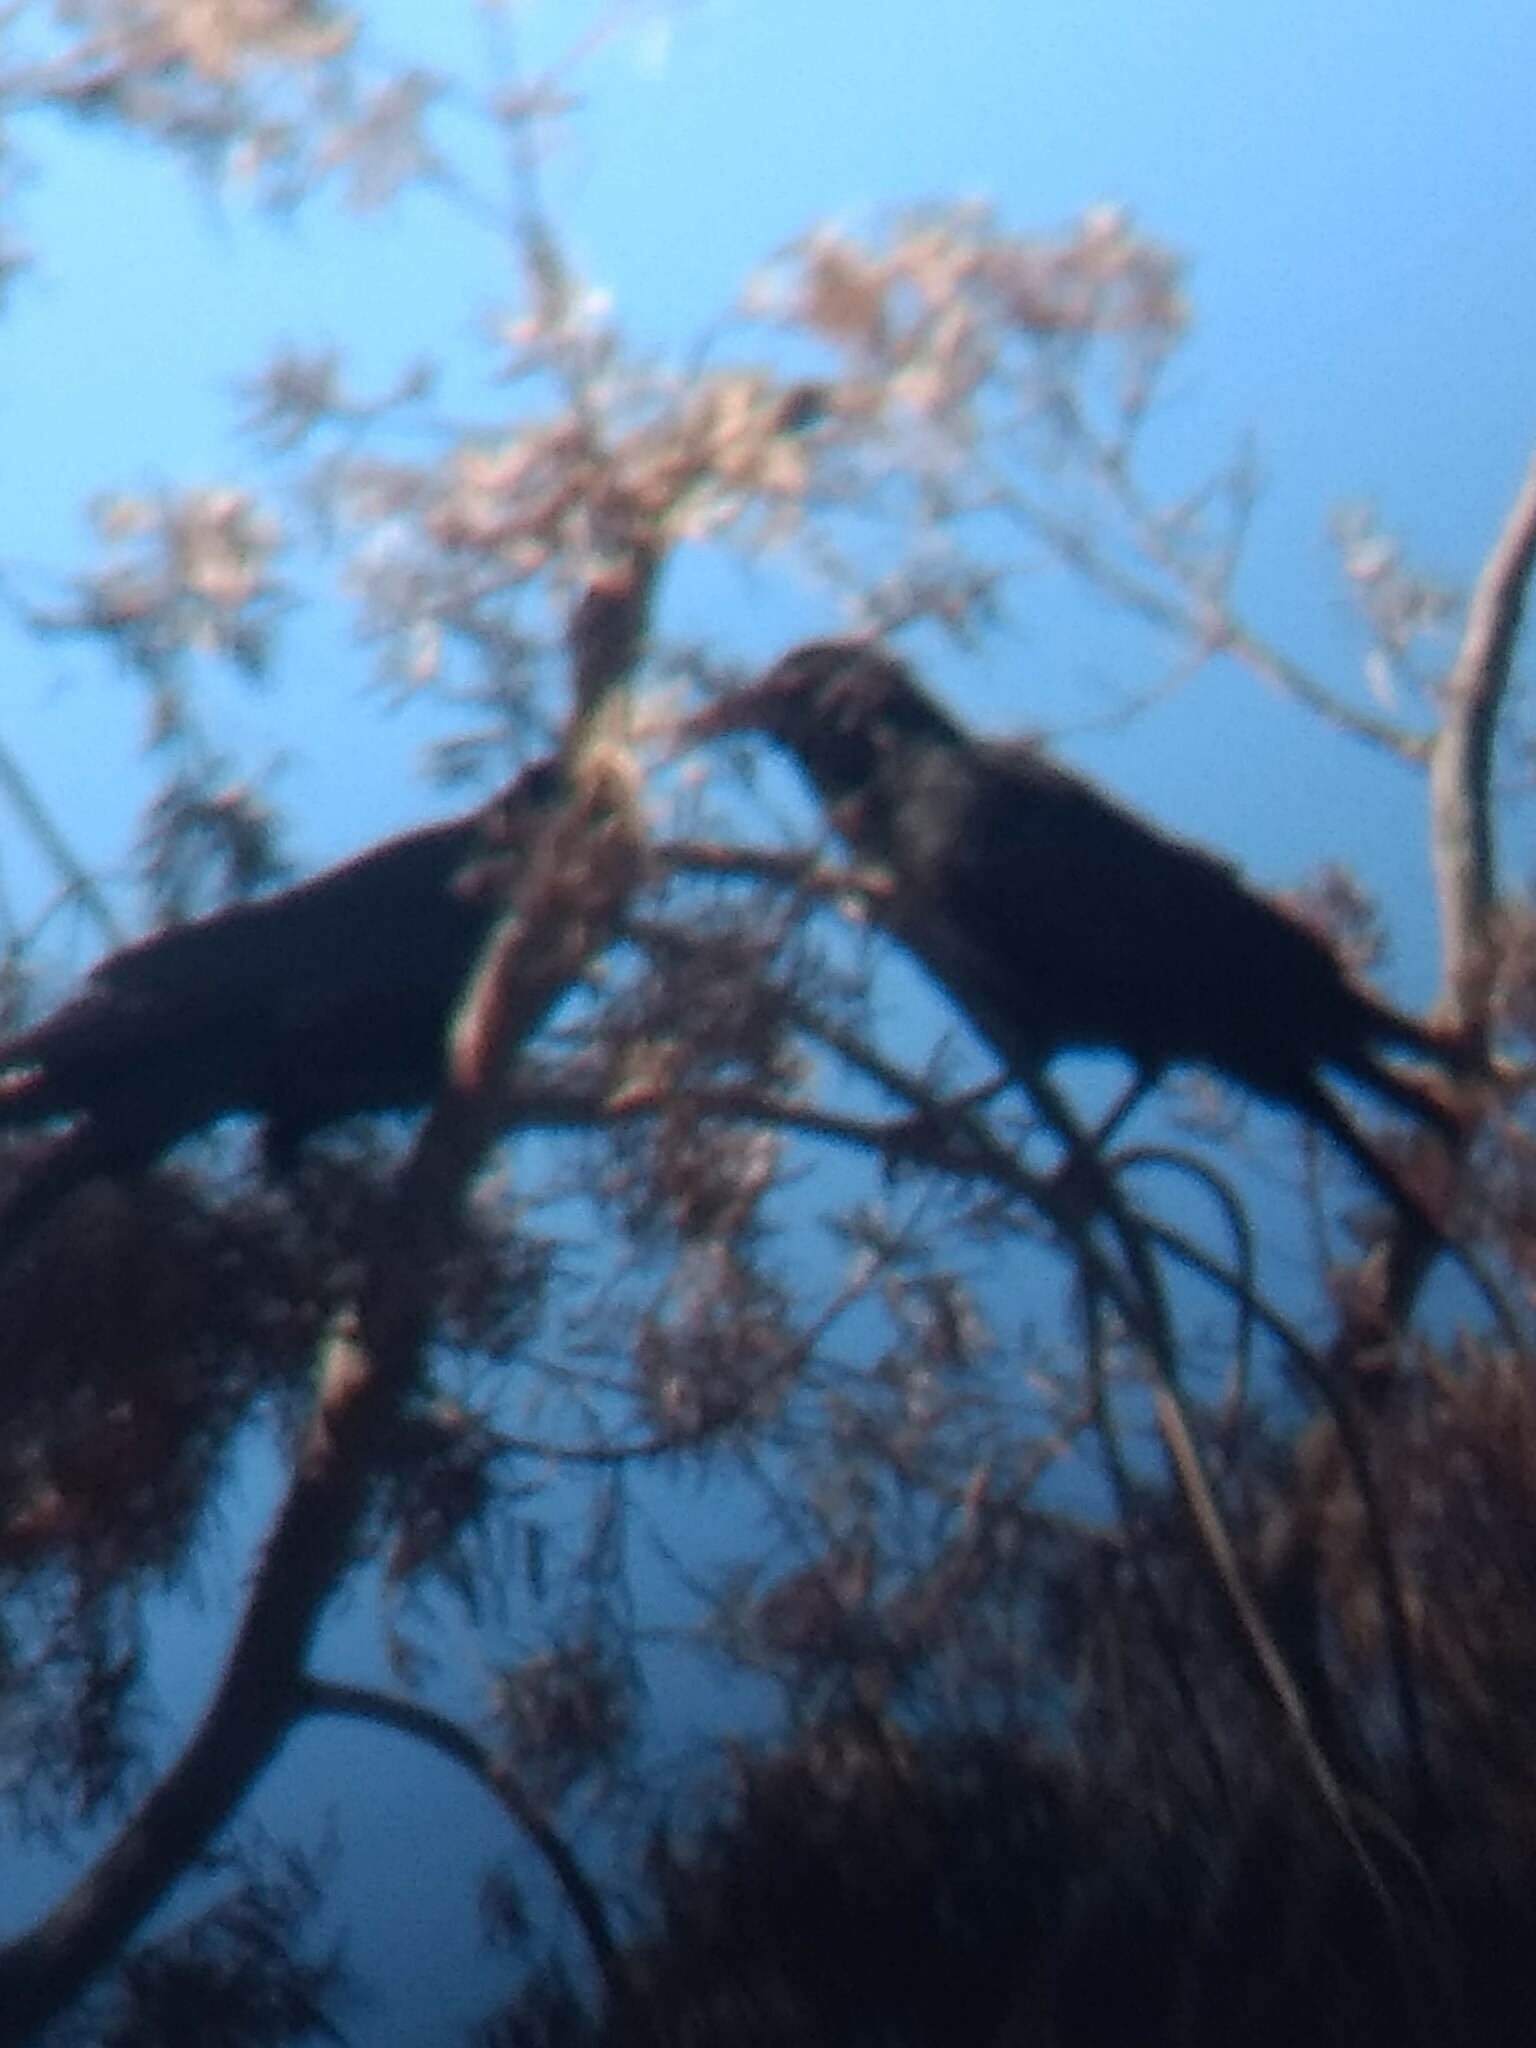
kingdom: Animalia
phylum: Chordata
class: Aves
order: Passeriformes
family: Corvidae
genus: Corvus
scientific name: Corvus brachyrhynchos
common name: American crow
